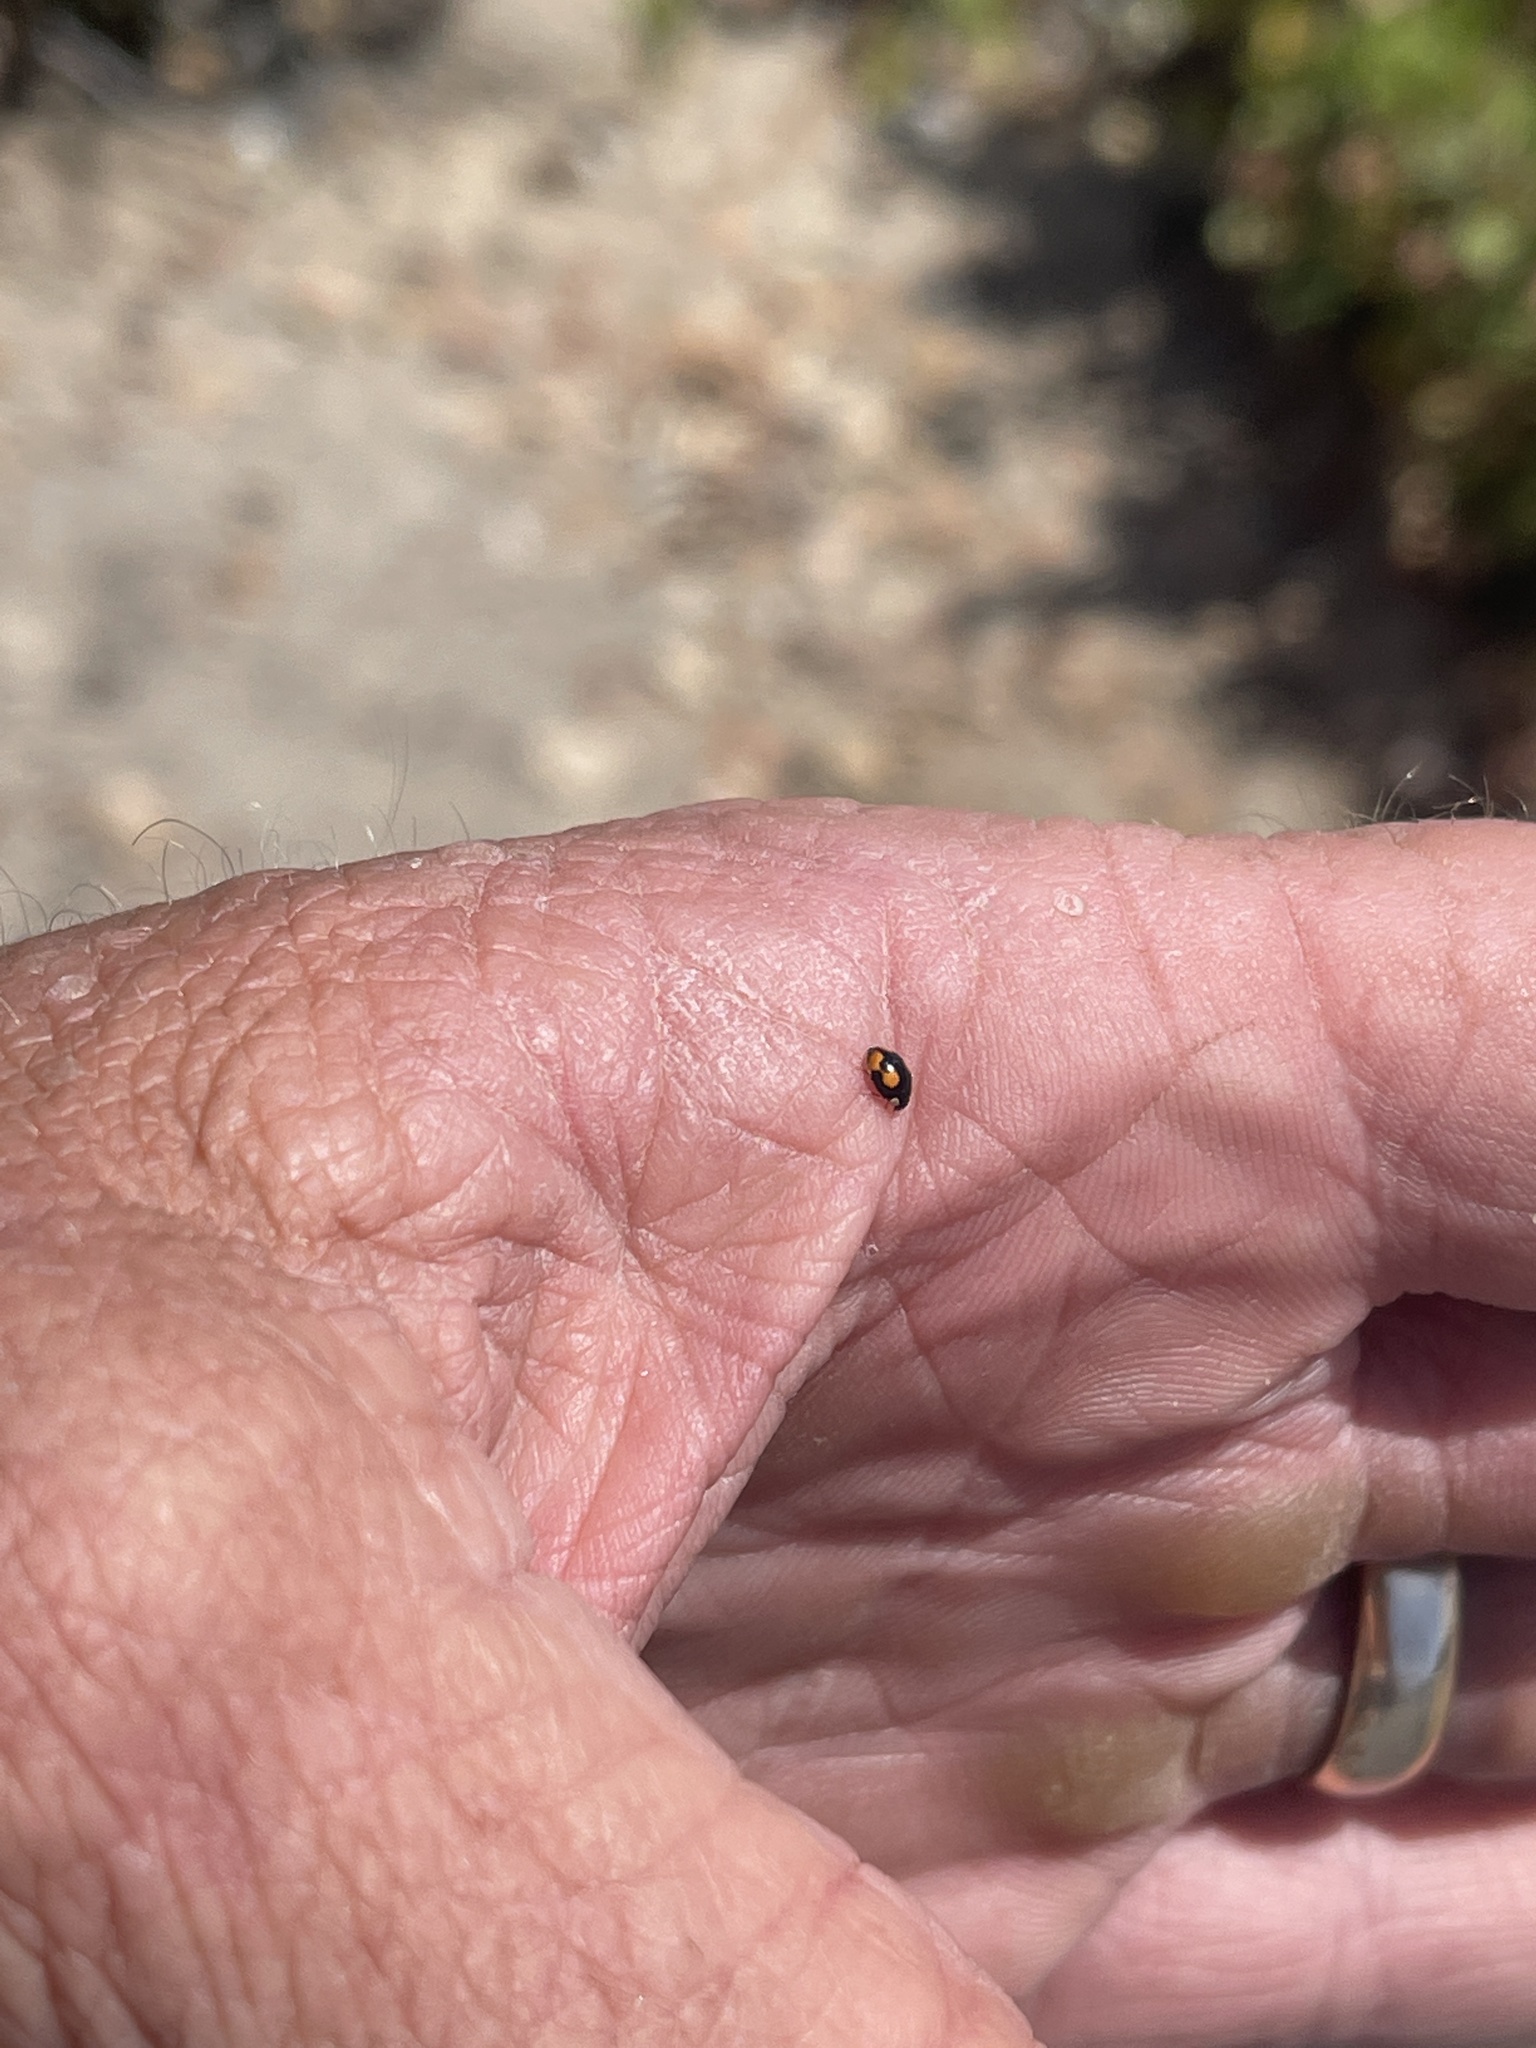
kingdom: Animalia
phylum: Arthropoda
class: Insecta
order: Coleoptera
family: Coccinellidae
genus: Hyperaspis
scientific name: Hyperaspis connectens
